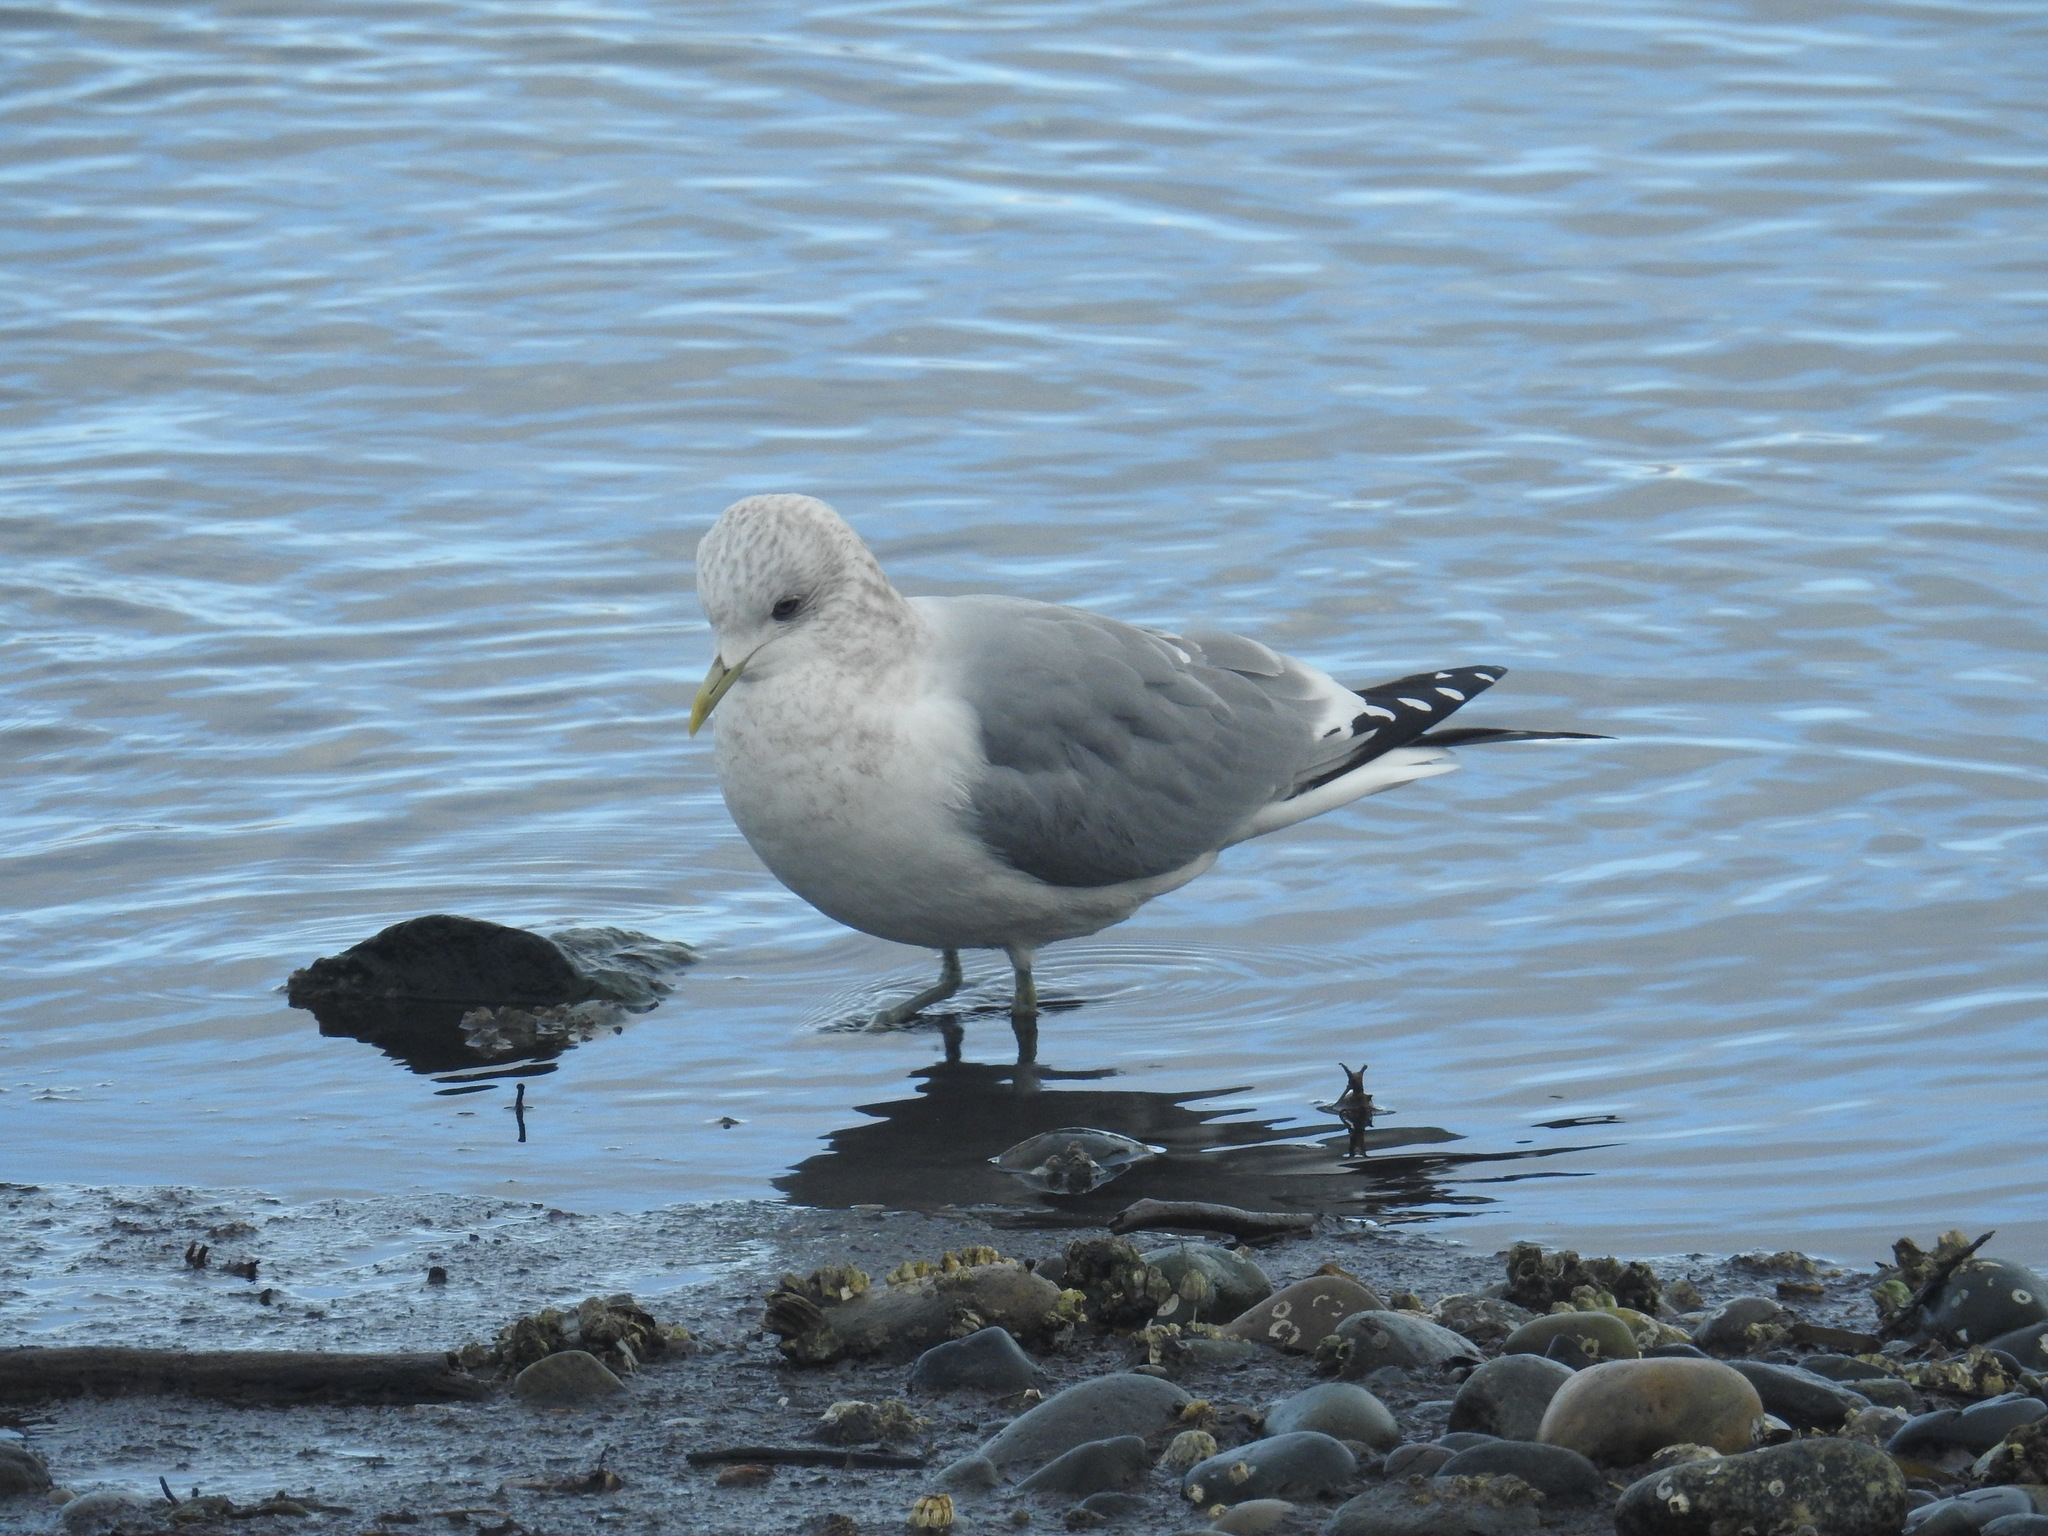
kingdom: Animalia
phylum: Chordata
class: Aves
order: Charadriiformes
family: Laridae
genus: Larus
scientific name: Larus brachyrhynchus
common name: Short-billed gull
